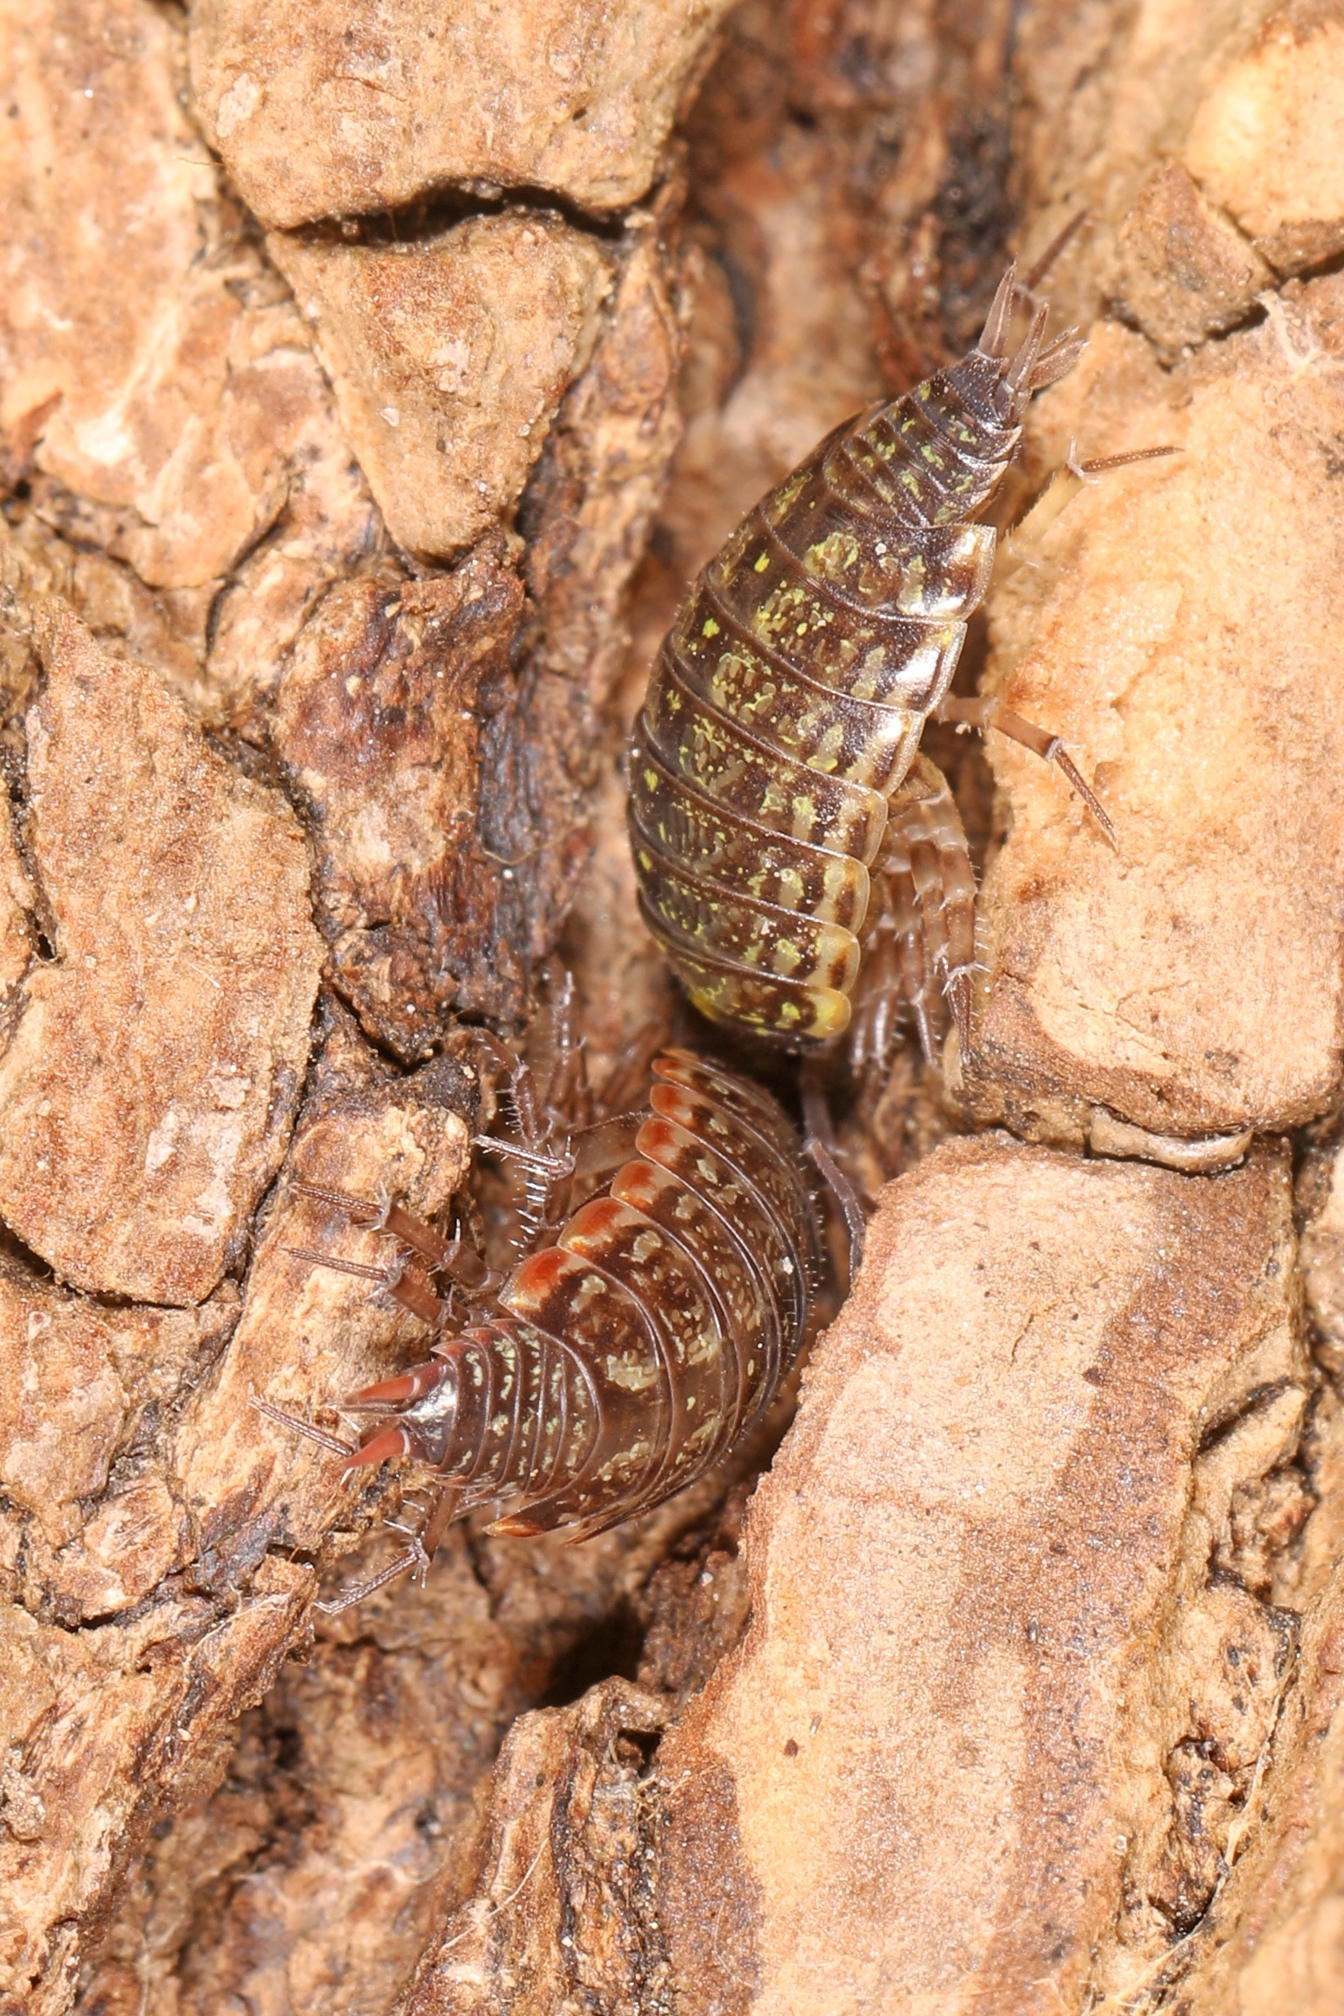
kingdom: Animalia
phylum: Arthropoda
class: Malacostraca
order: Isopoda
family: Philosciidae
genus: Philoscia
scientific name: Philoscia muscorum
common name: Common striped woodlouse
